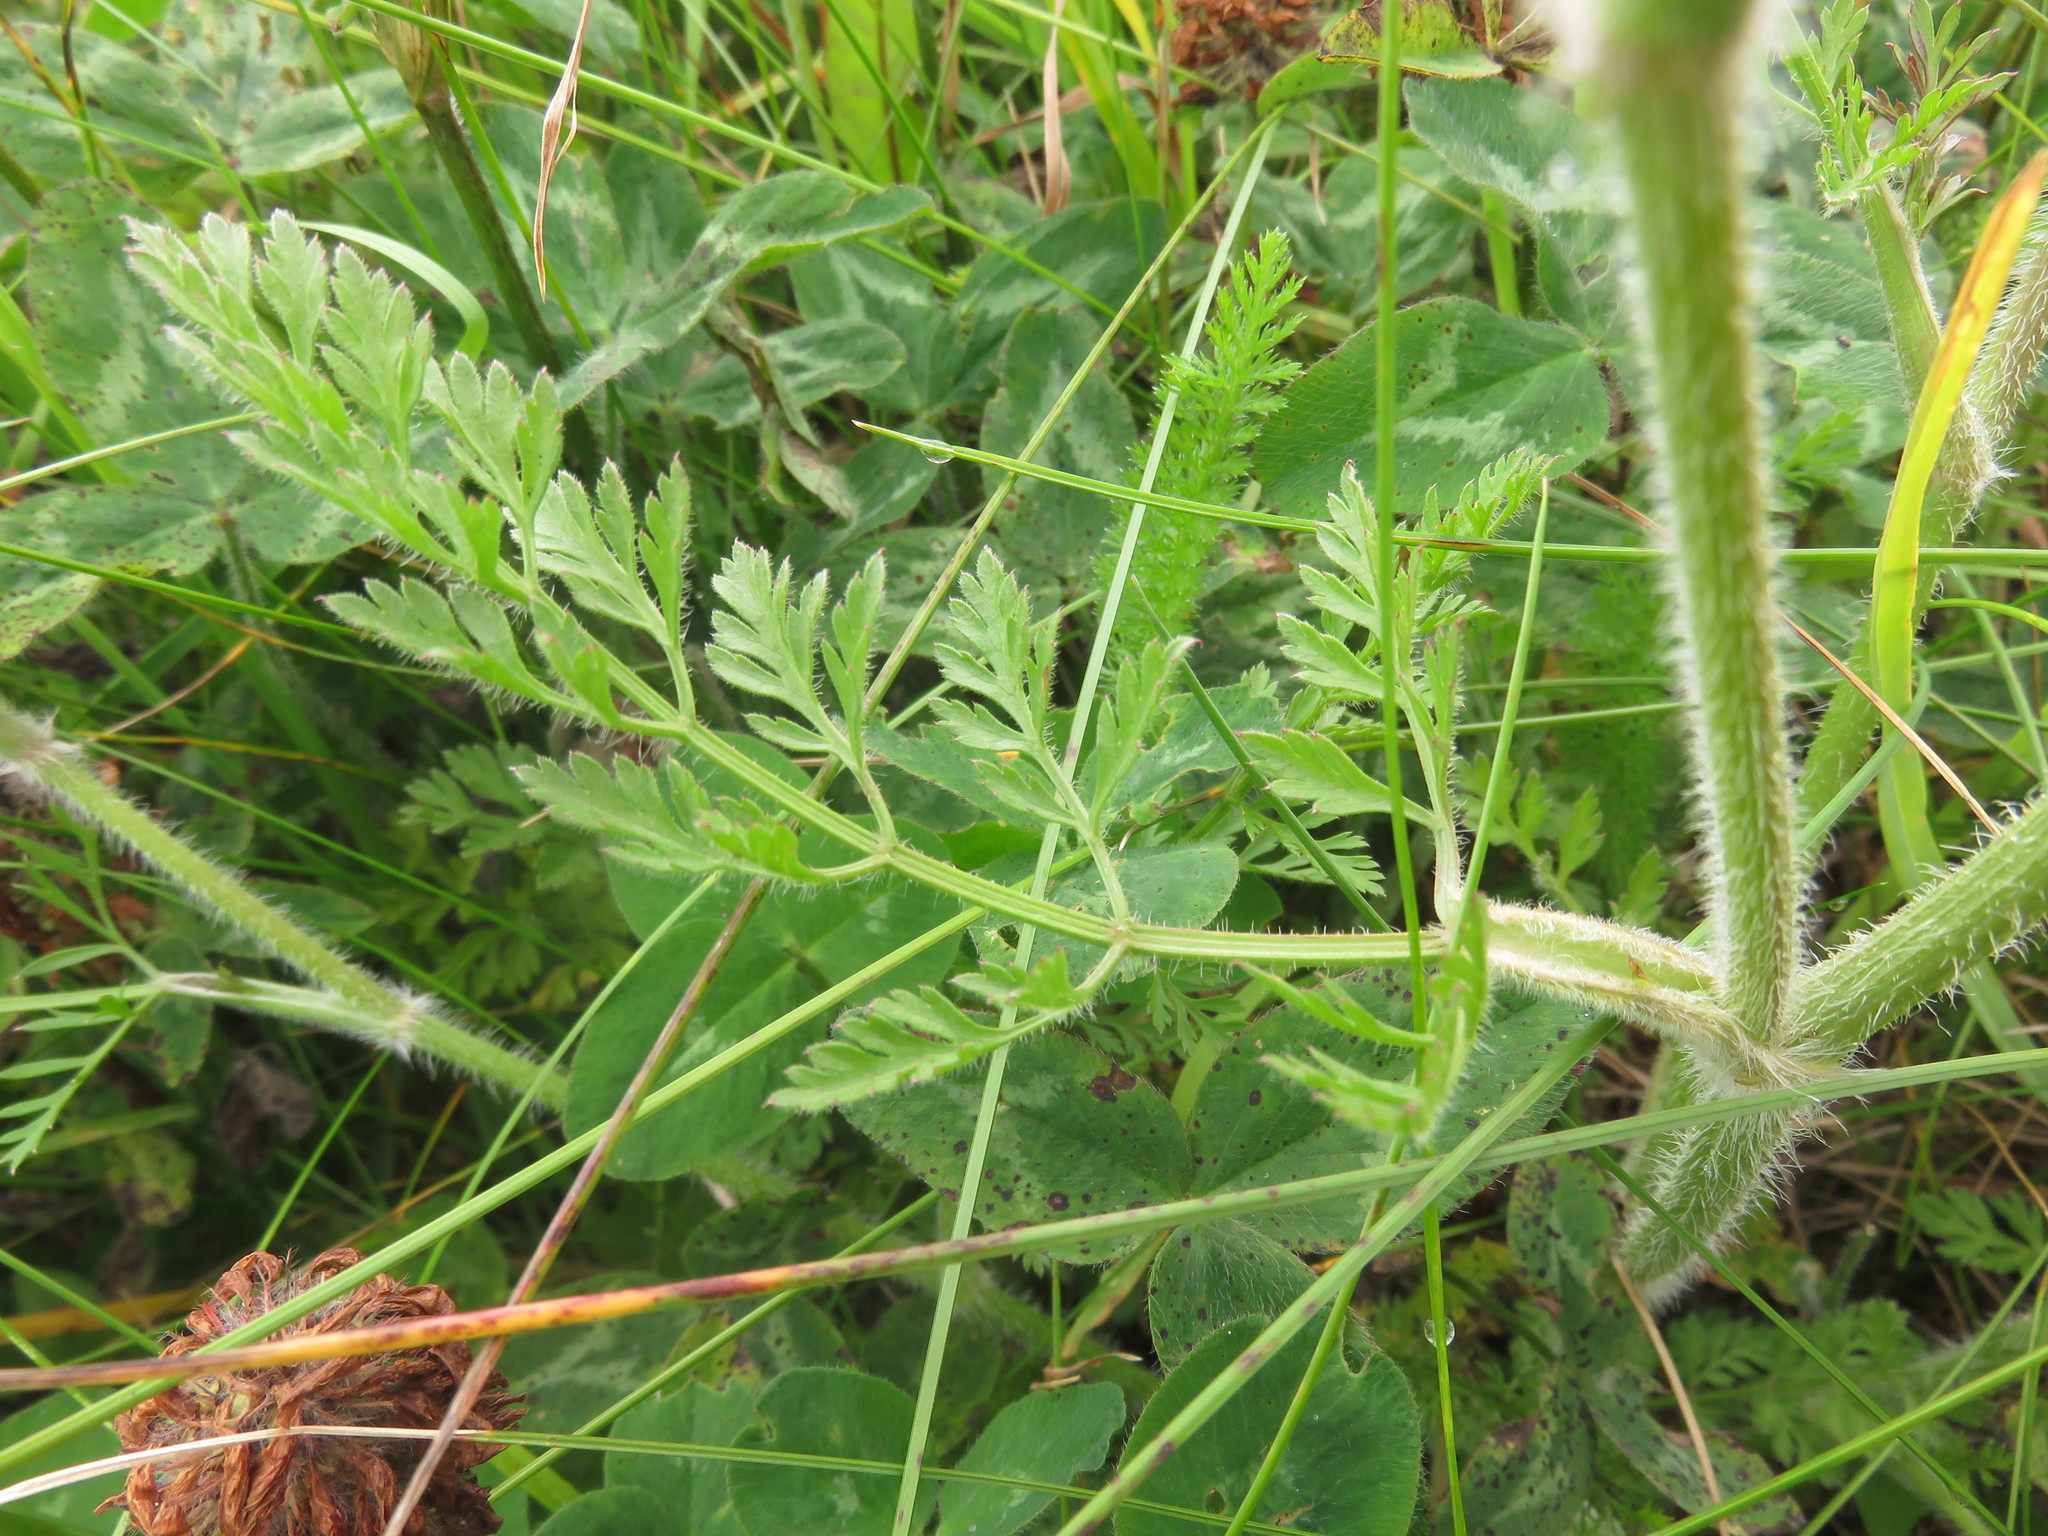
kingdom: Plantae
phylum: Tracheophyta
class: Magnoliopsida
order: Apiales
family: Apiaceae
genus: Daucus
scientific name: Daucus carota
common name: Wild carrot
